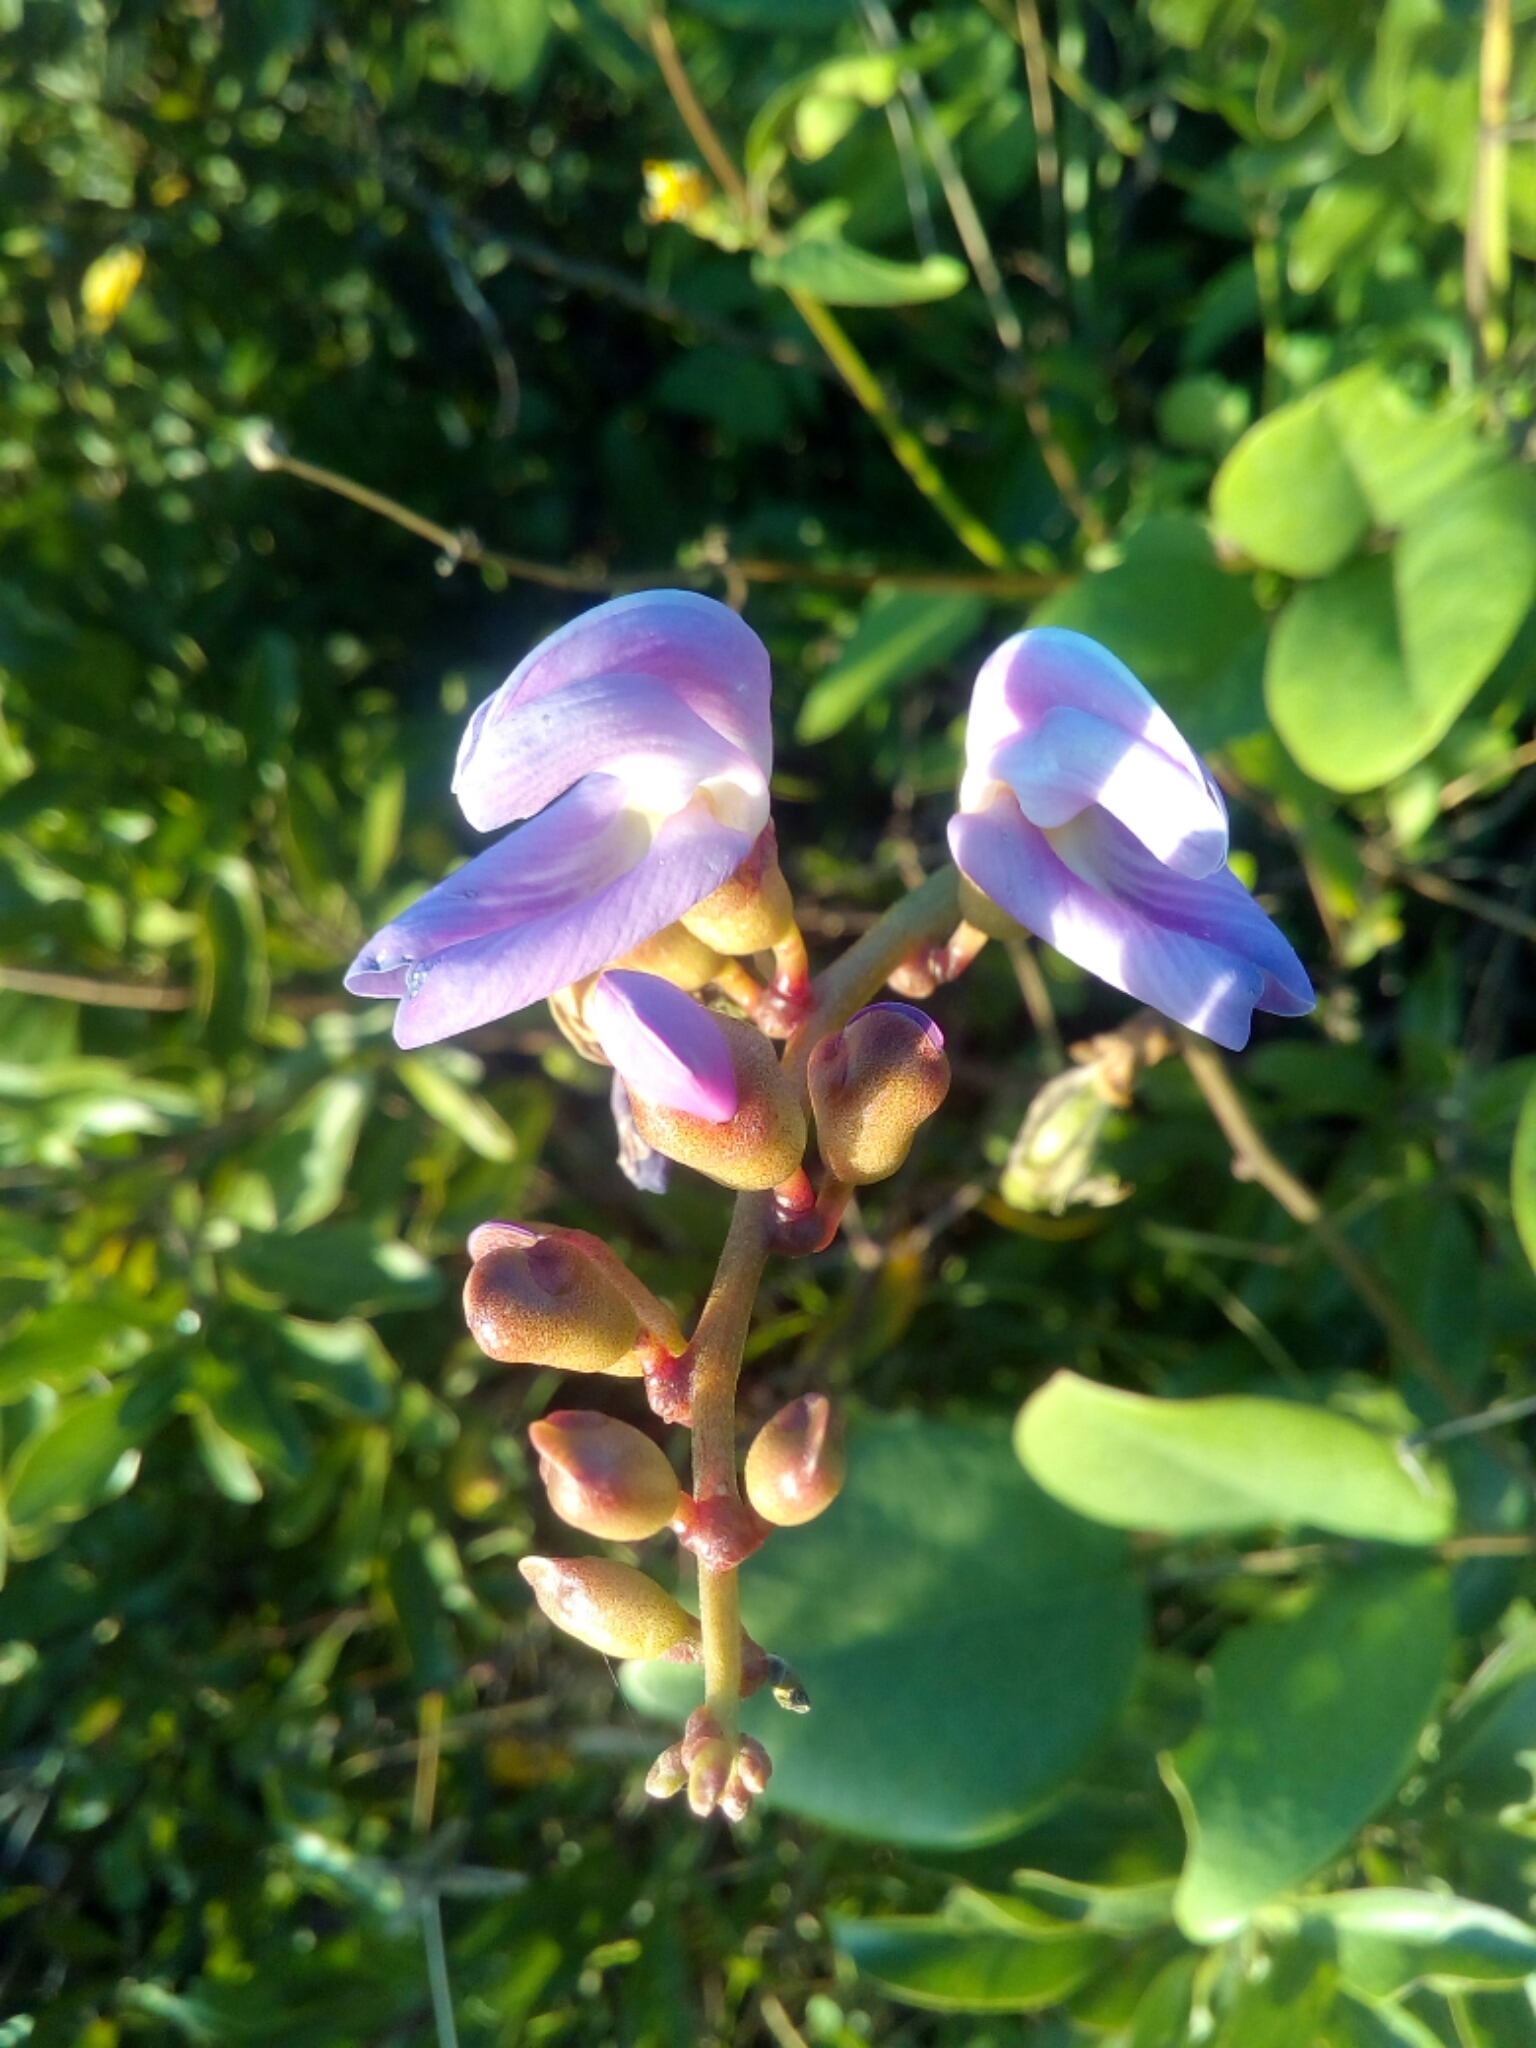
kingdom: Plantae
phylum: Tracheophyta
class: Magnoliopsida
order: Fabales
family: Fabaceae
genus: Canavalia
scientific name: Canavalia rosea
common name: Beach-bean
